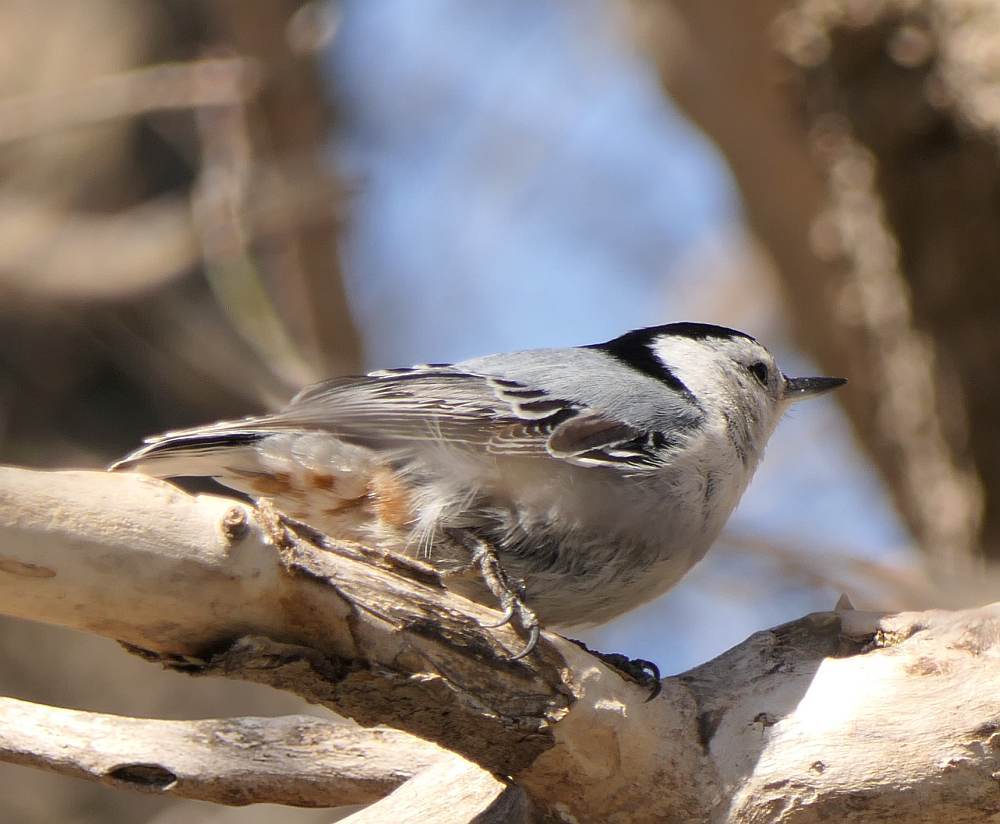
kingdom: Animalia
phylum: Chordata
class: Aves
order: Passeriformes
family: Sittidae
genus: Sitta
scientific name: Sitta carolinensis
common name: White-breasted nuthatch
